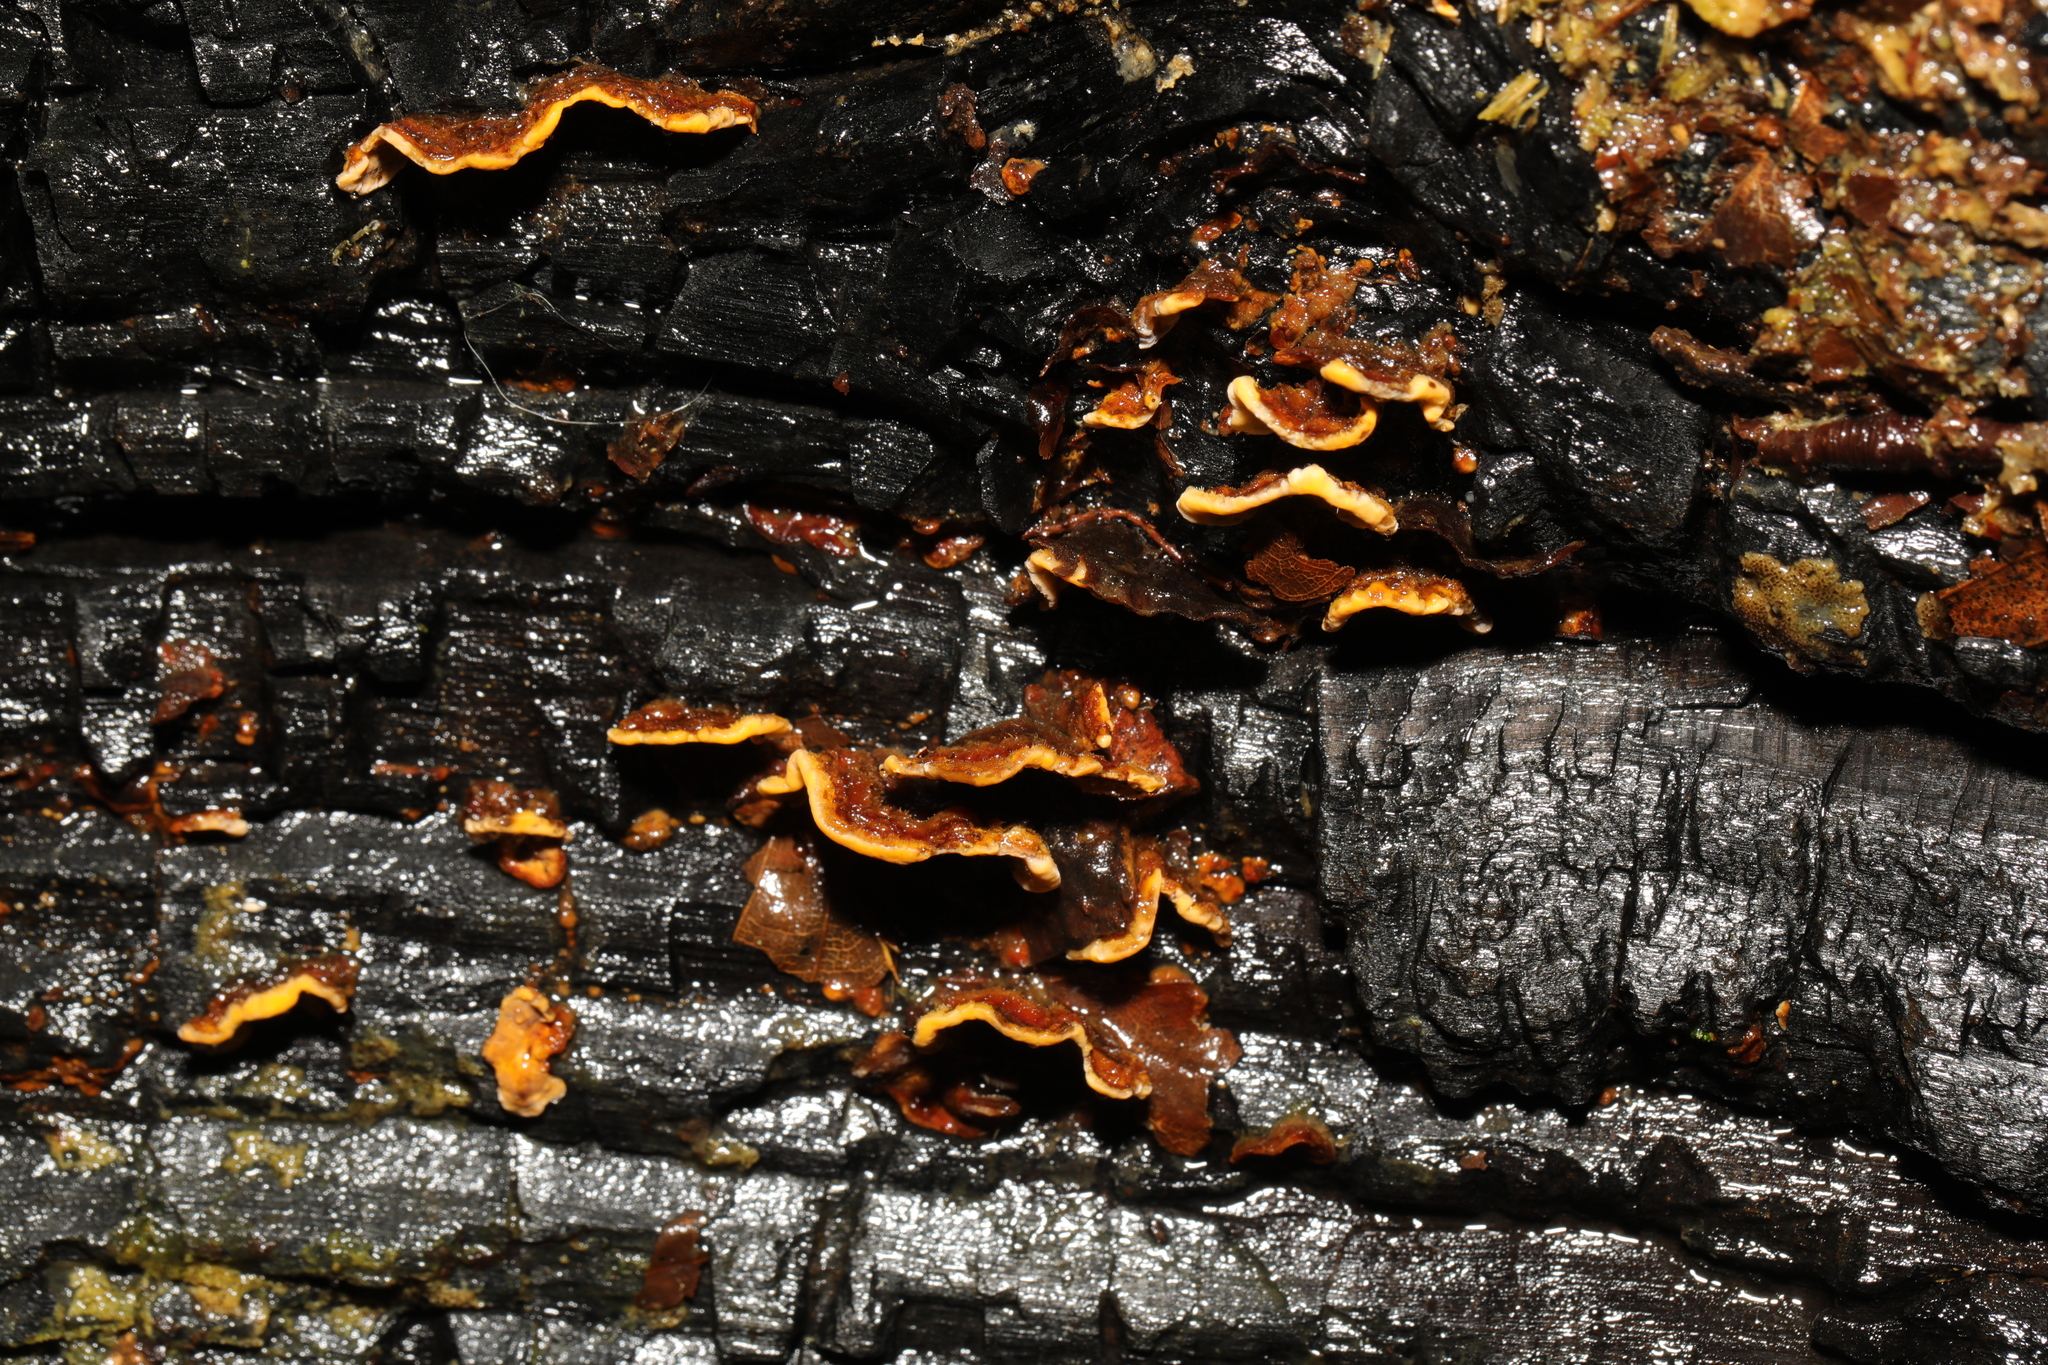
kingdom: Fungi
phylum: Basidiomycota
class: Agaricomycetes
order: Russulales
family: Stereaceae
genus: Stereum
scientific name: Stereum hirsutum
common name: Hairy curtain crust
